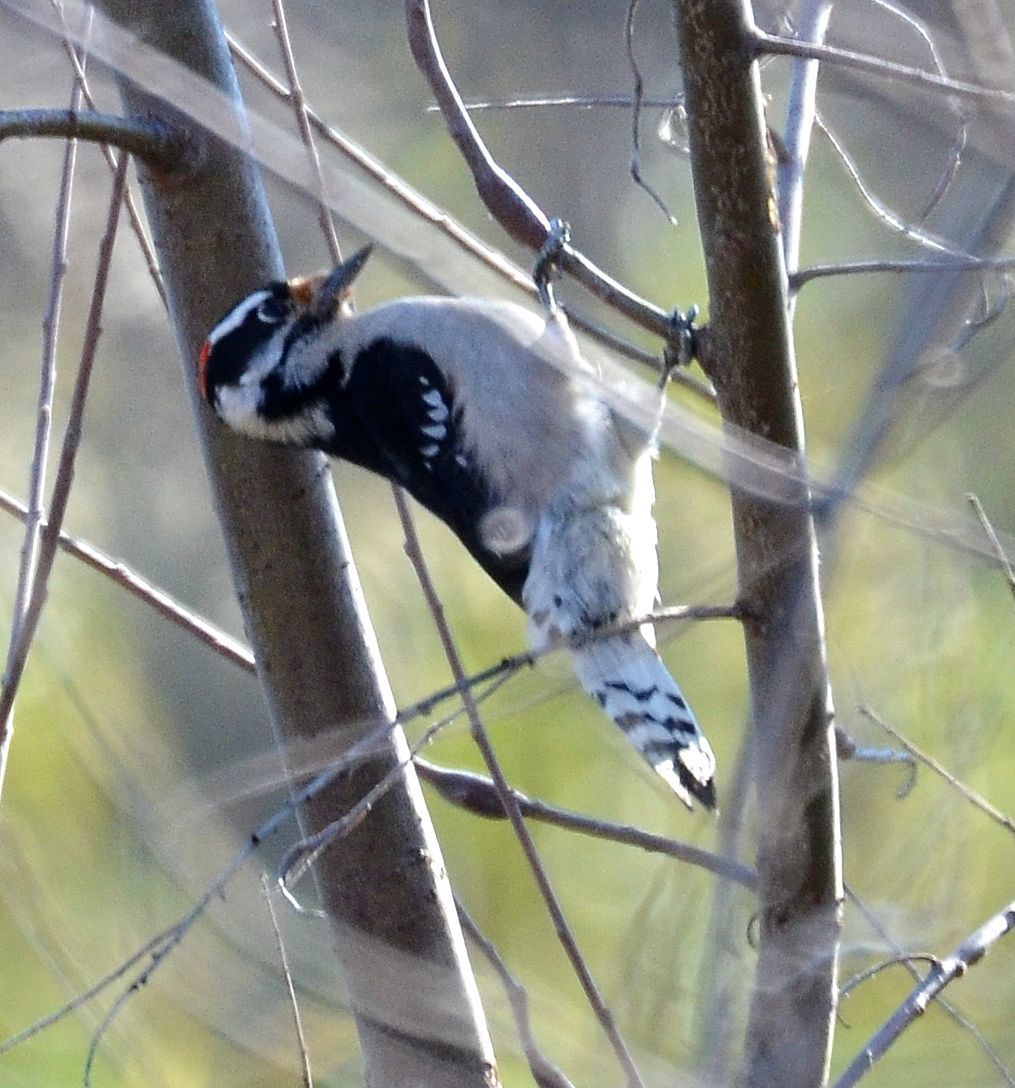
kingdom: Animalia
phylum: Chordata
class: Aves
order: Piciformes
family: Picidae
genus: Dryobates
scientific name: Dryobates pubescens
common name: Downy woodpecker
